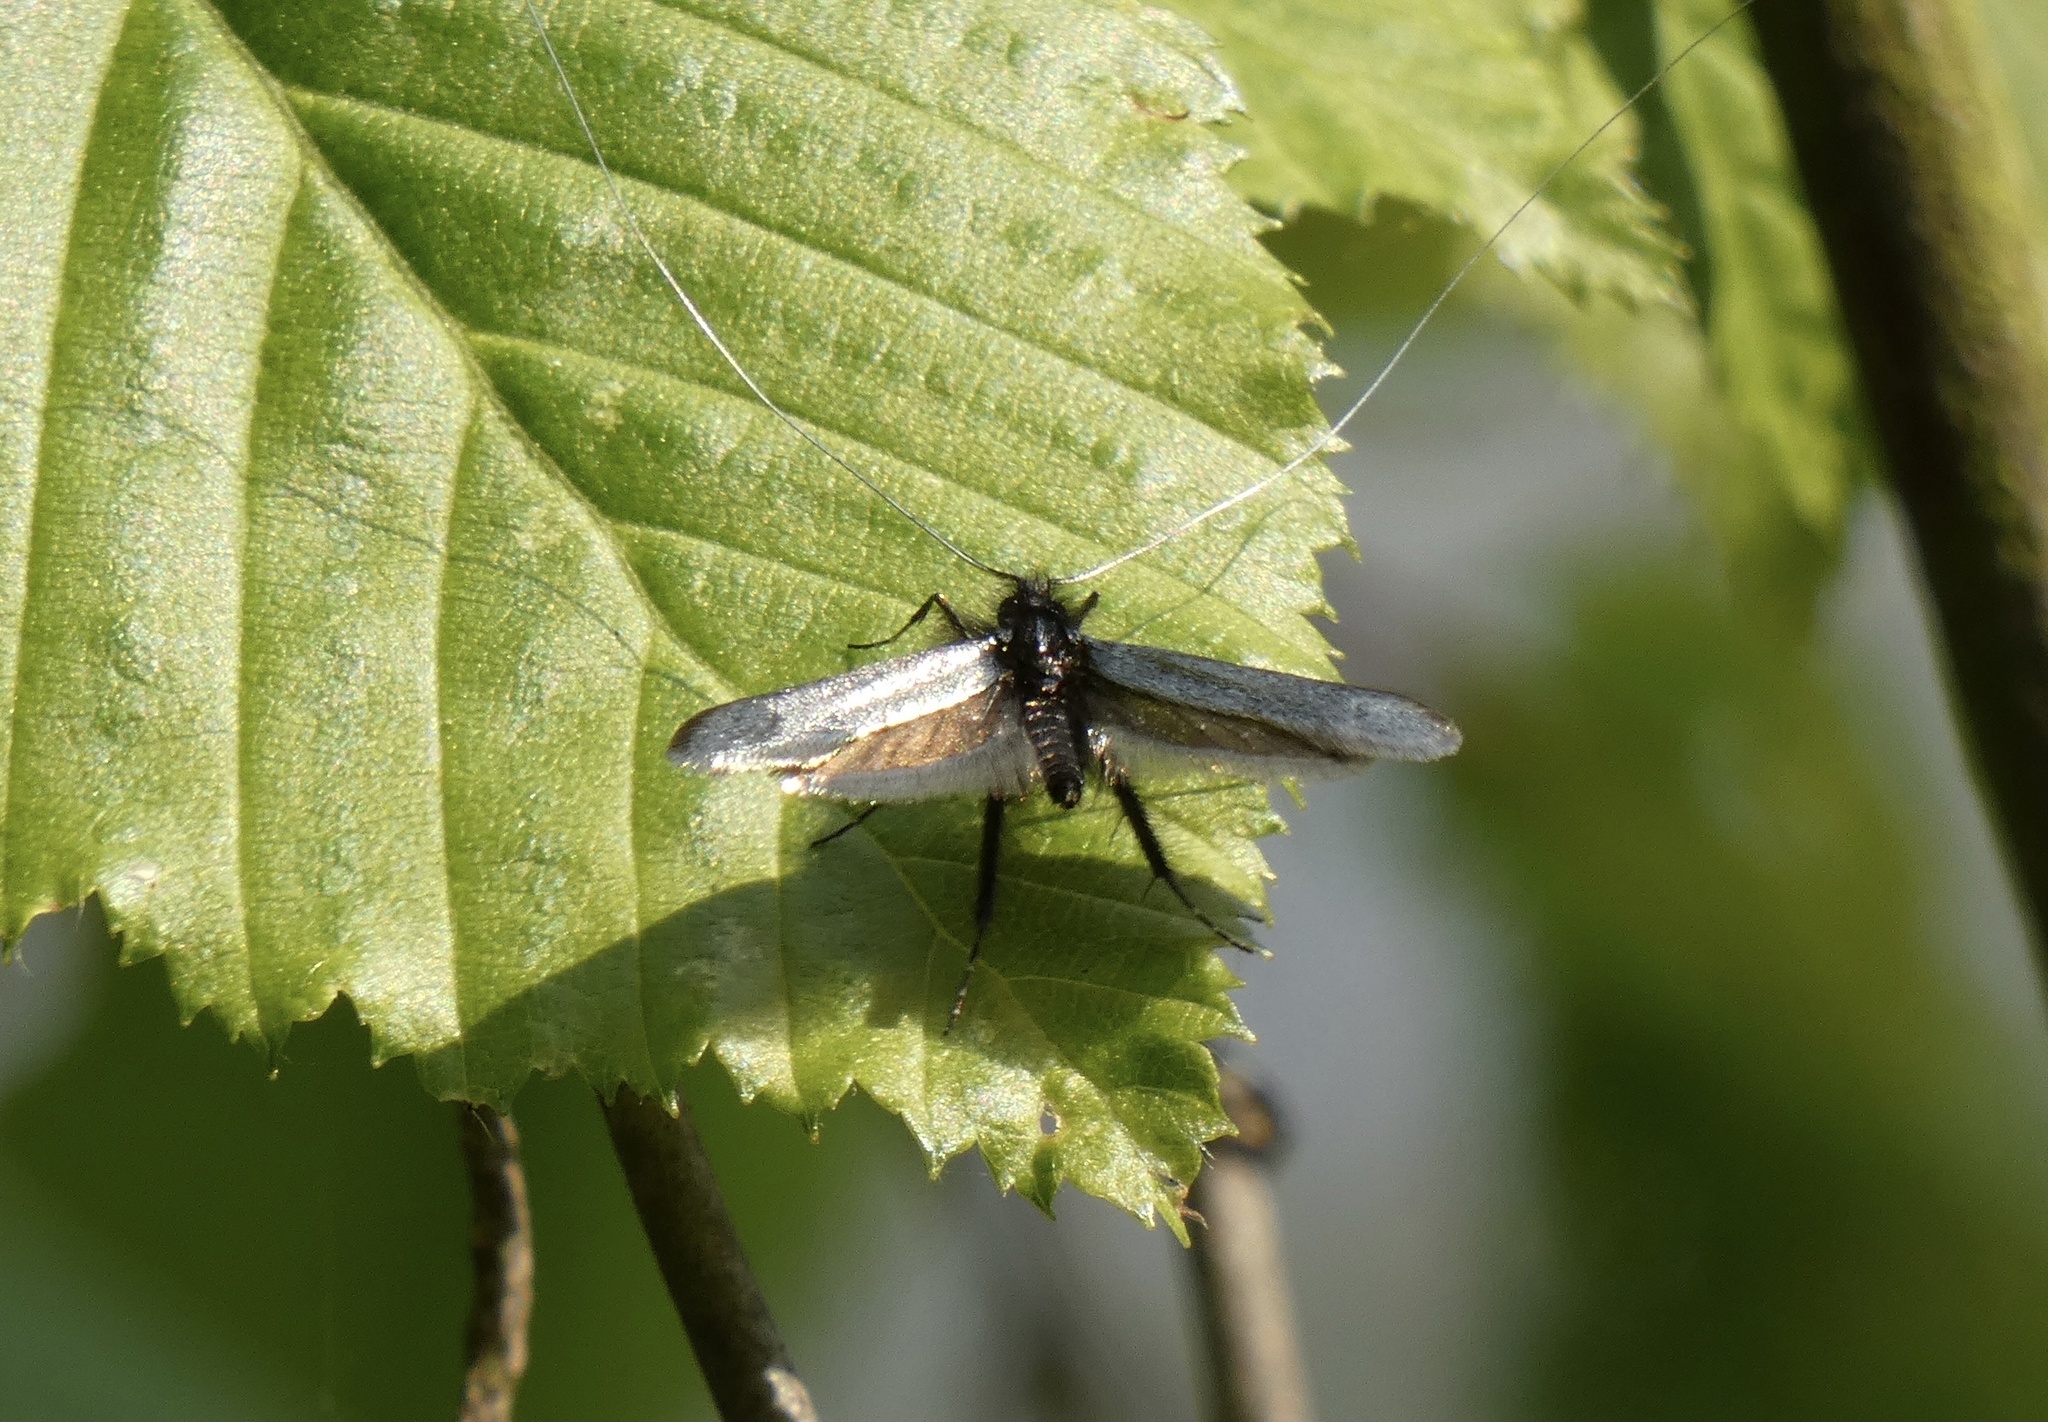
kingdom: Animalia
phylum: Arthropoda
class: Insecta
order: Lepidoptera
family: Adelidae
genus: Adela
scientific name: Adela viridella
